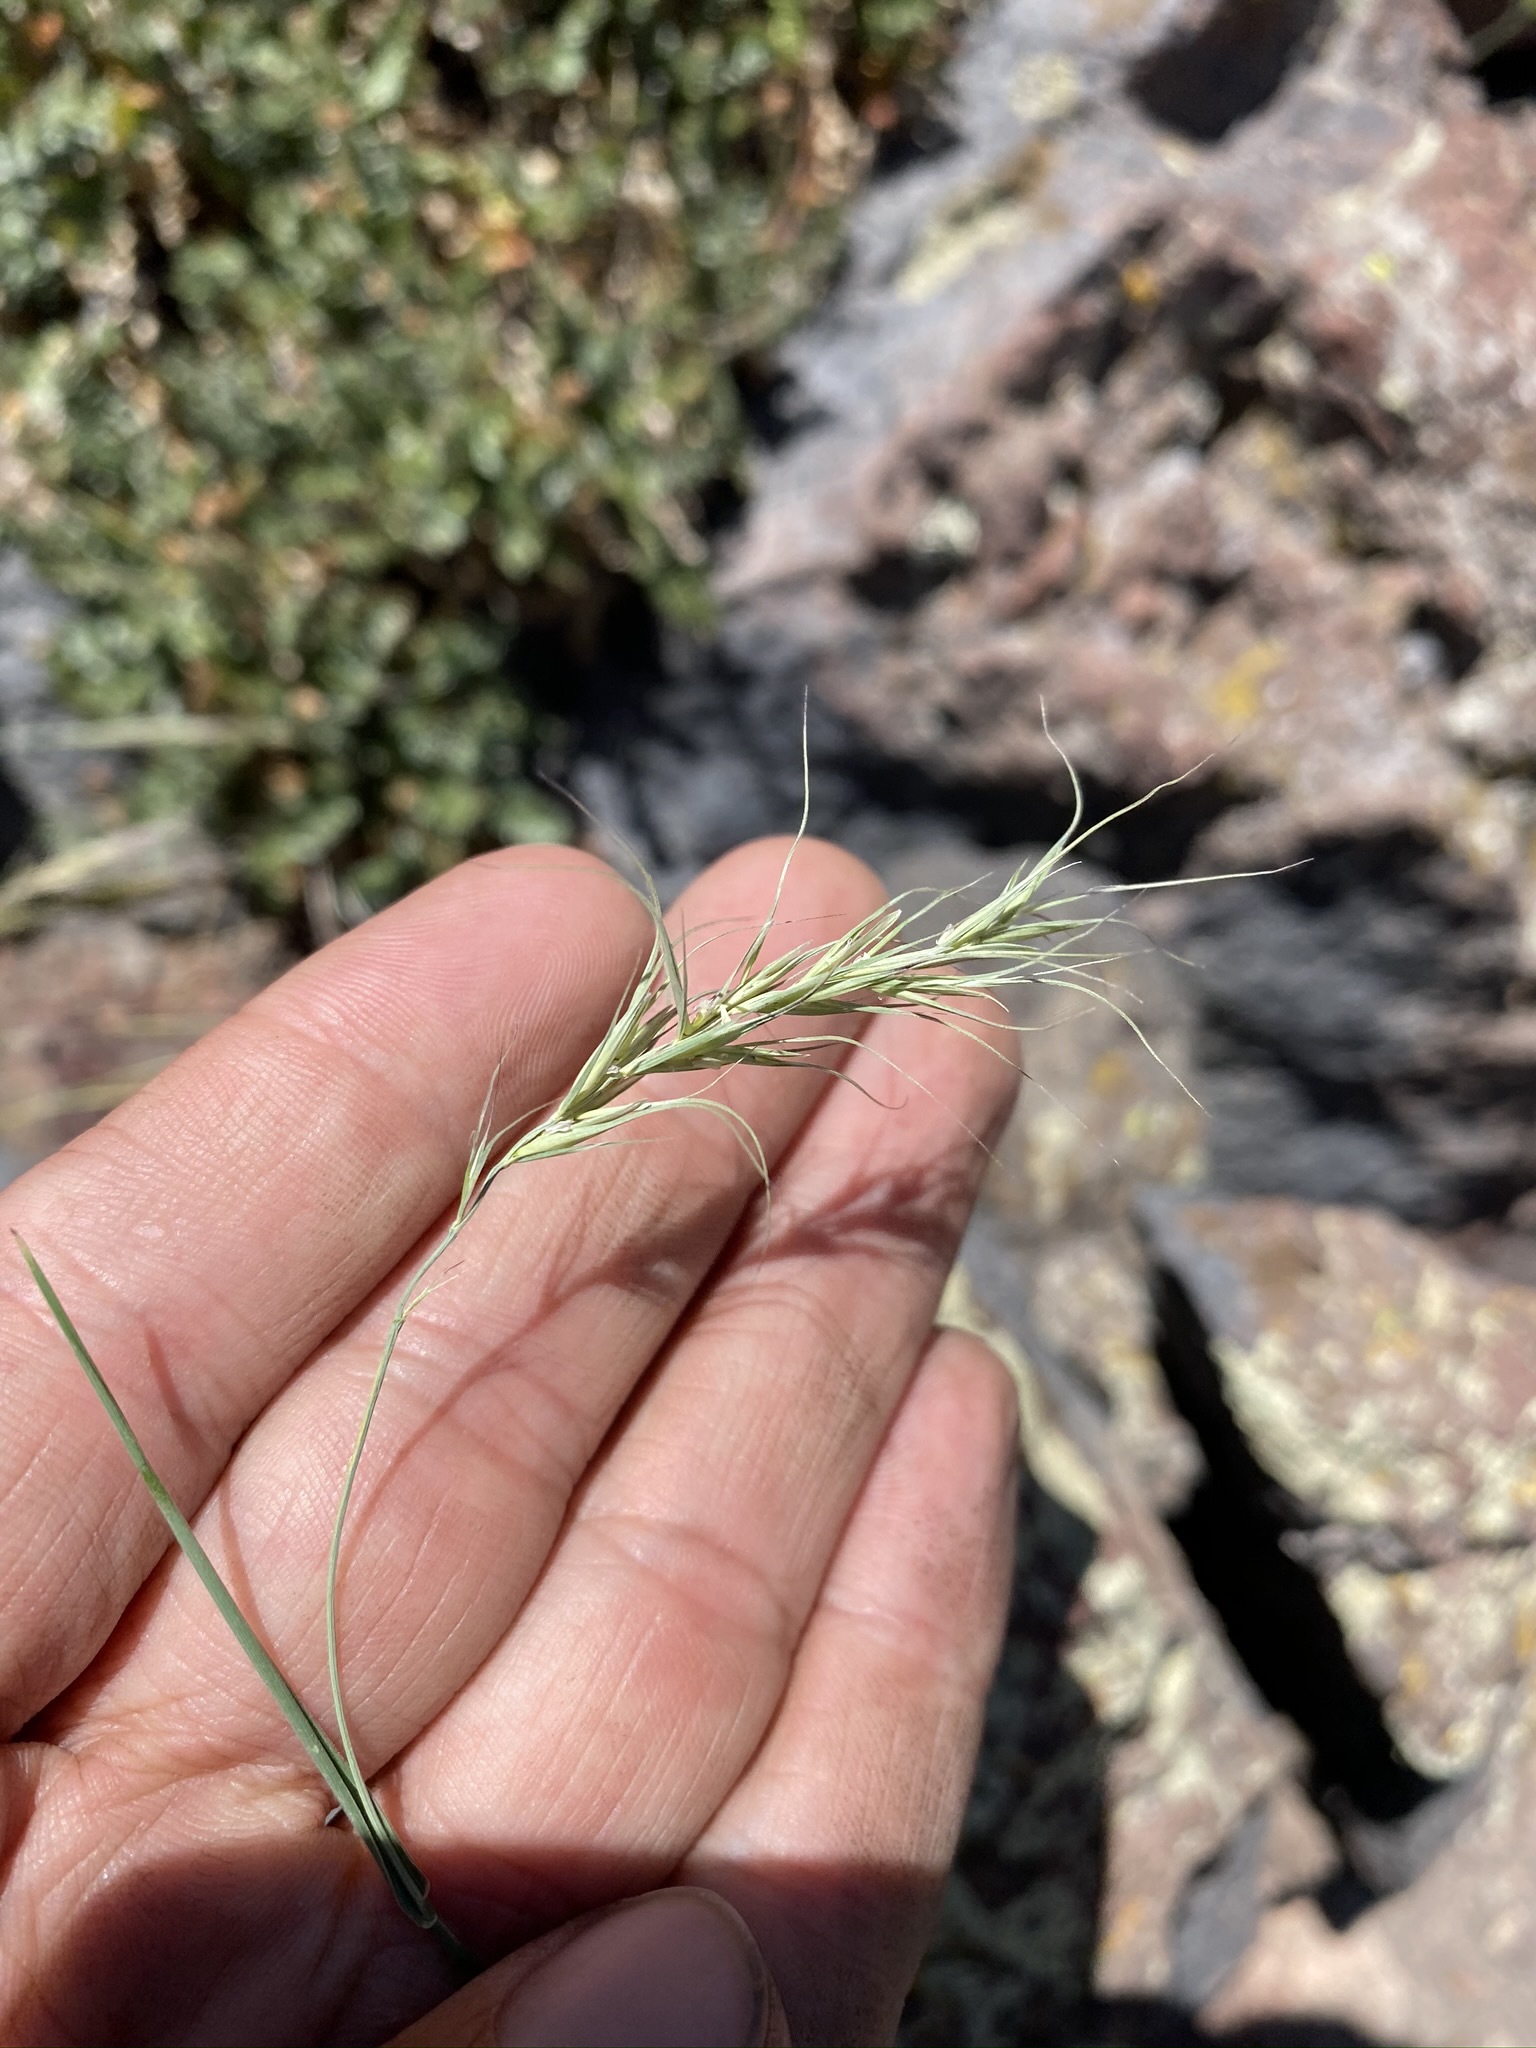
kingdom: Plantae
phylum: Tracheophyta
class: Liliopsida
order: Poales
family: Poaceae
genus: Elymus
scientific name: Elymus scribneri
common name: Scribner's wheatgrass
